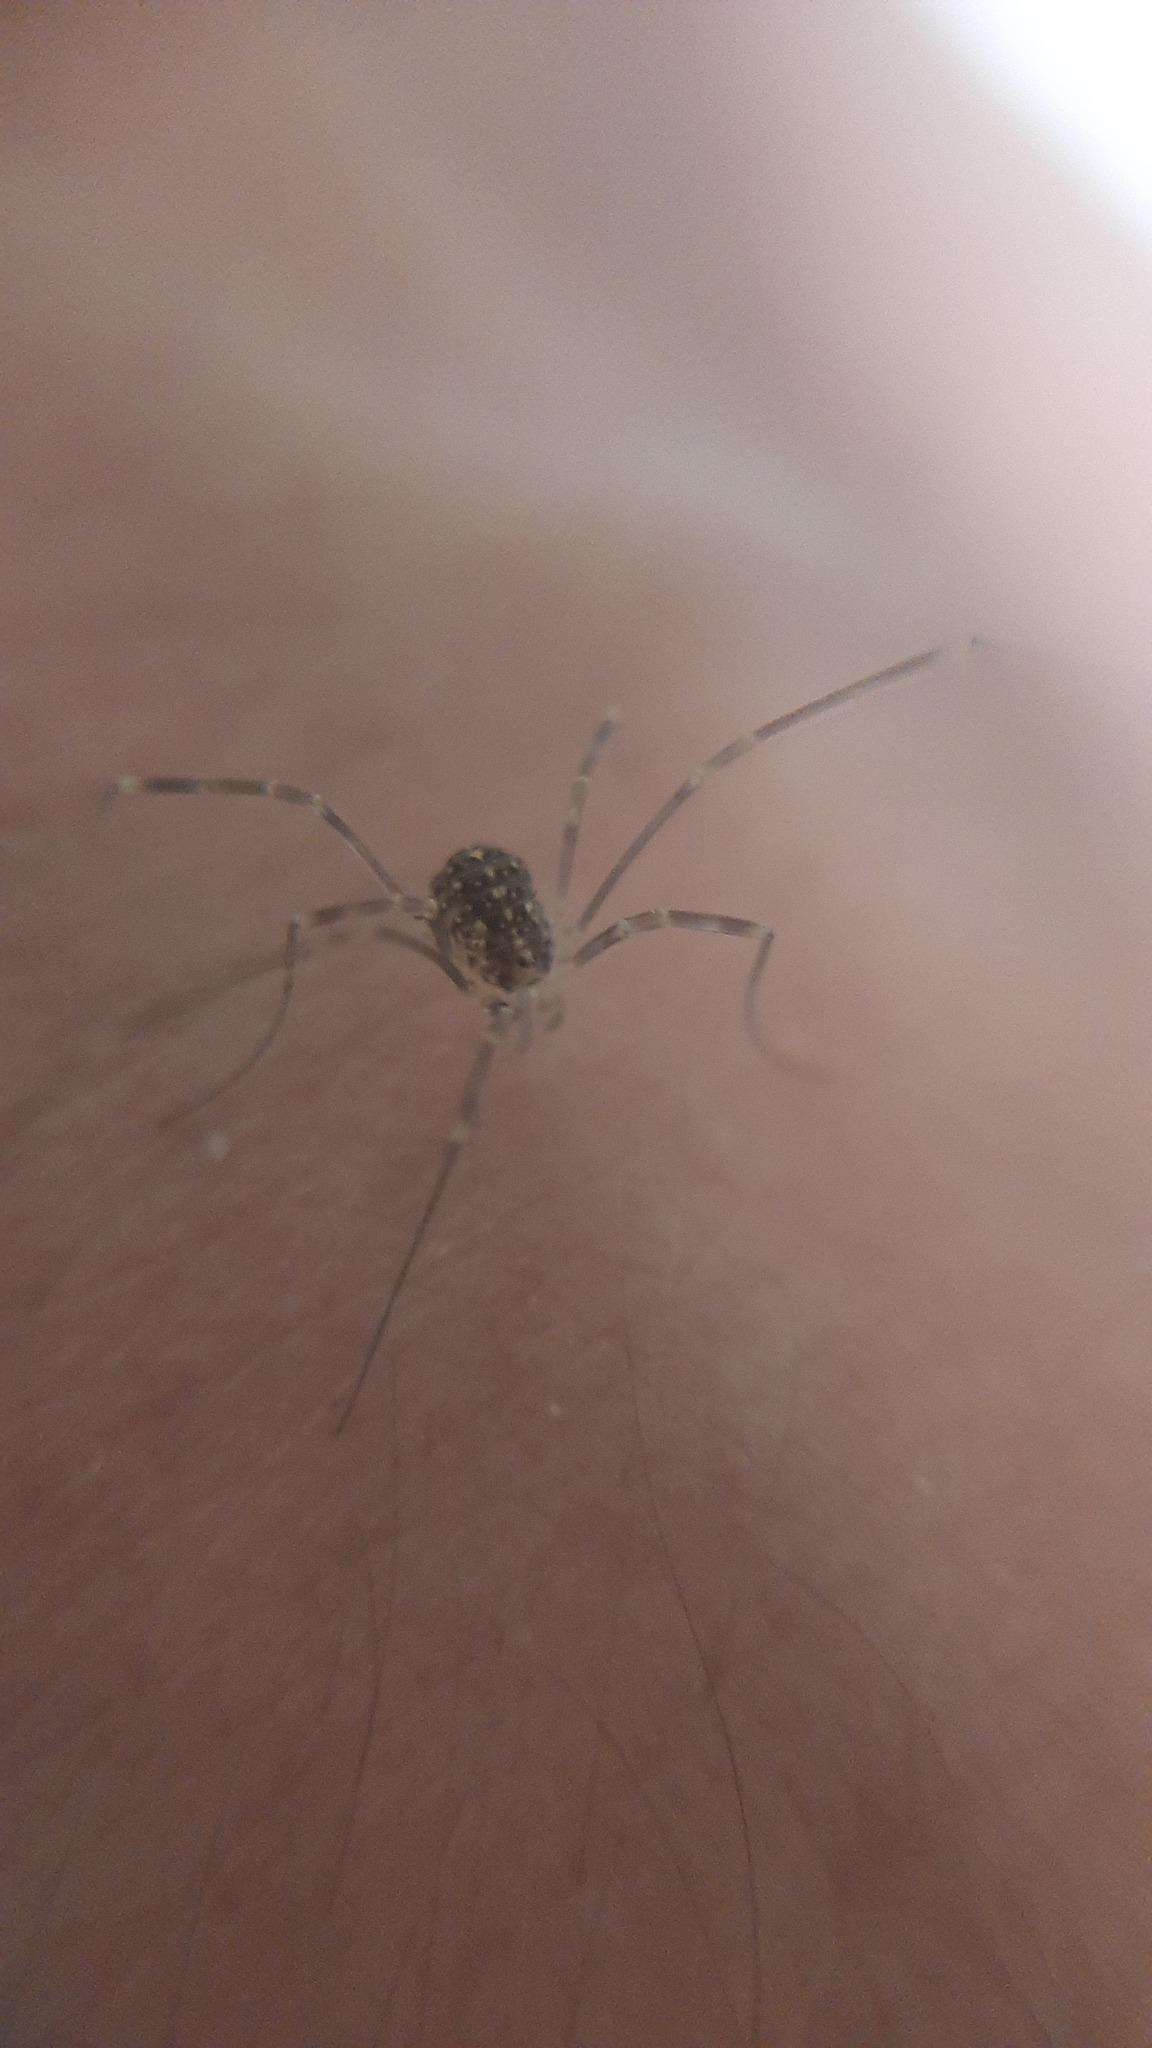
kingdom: Animalia
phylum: Arthropoda
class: Arachnida
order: Opiliones
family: Phalangiidae
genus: Opilio
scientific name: Opilio saxatilis
